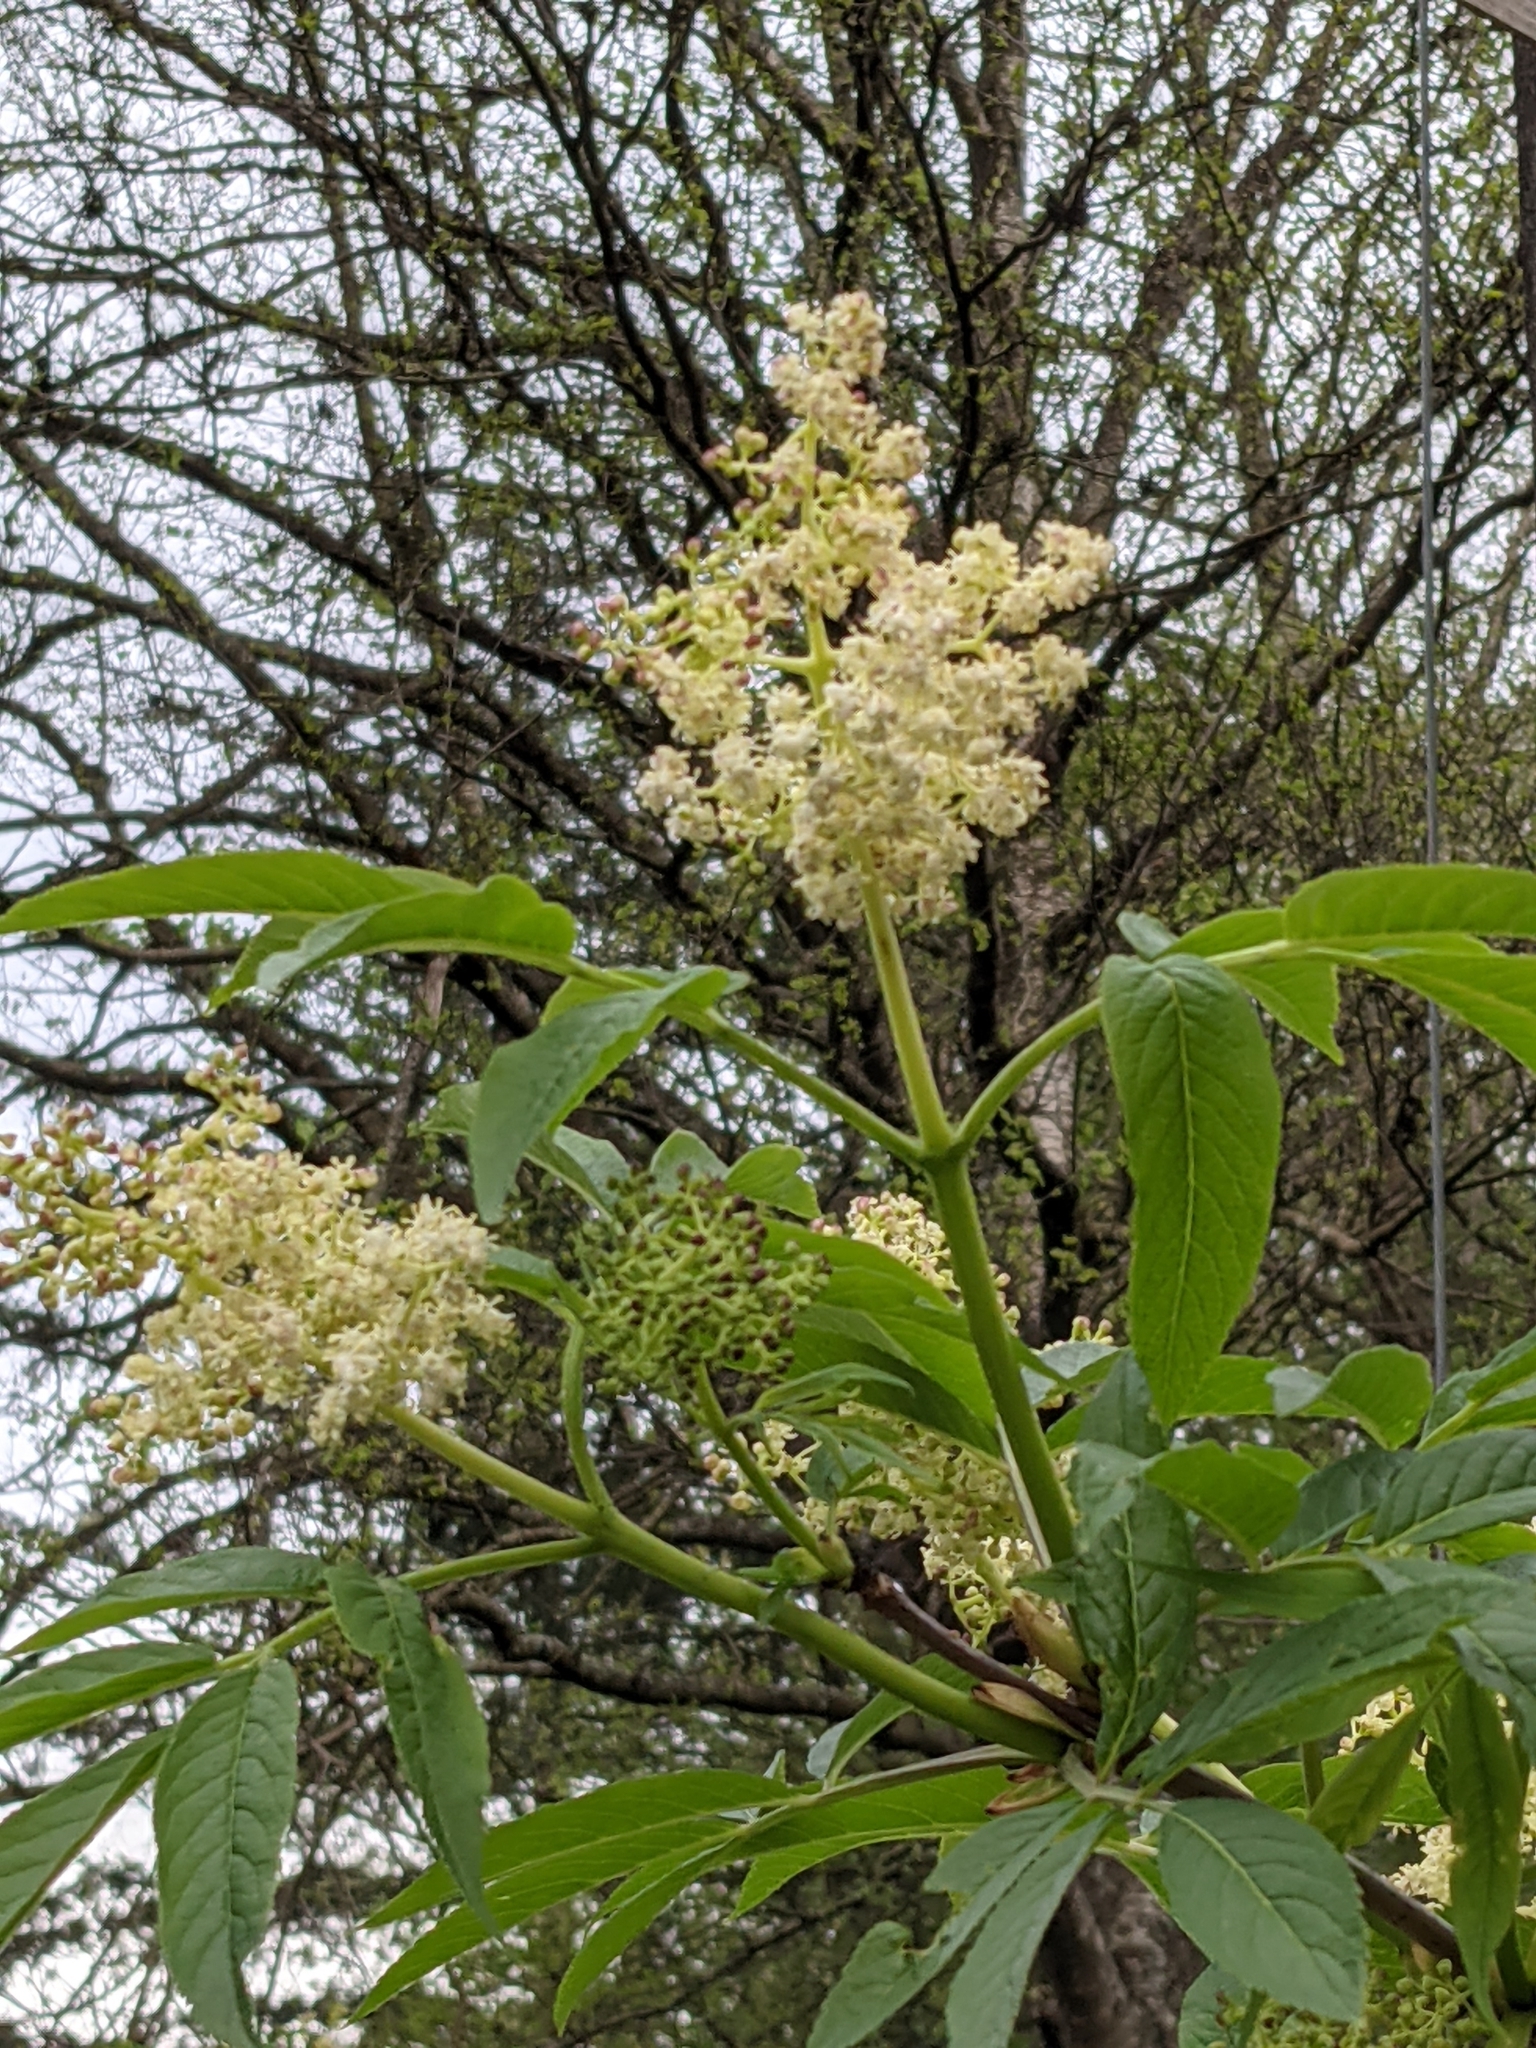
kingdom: Plantae
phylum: Tracheophyta
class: Magnoliopsida
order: Dipsacales
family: Viburnaceae
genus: Sambucus
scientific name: Sambucus racemosa
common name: Red-berried elder
